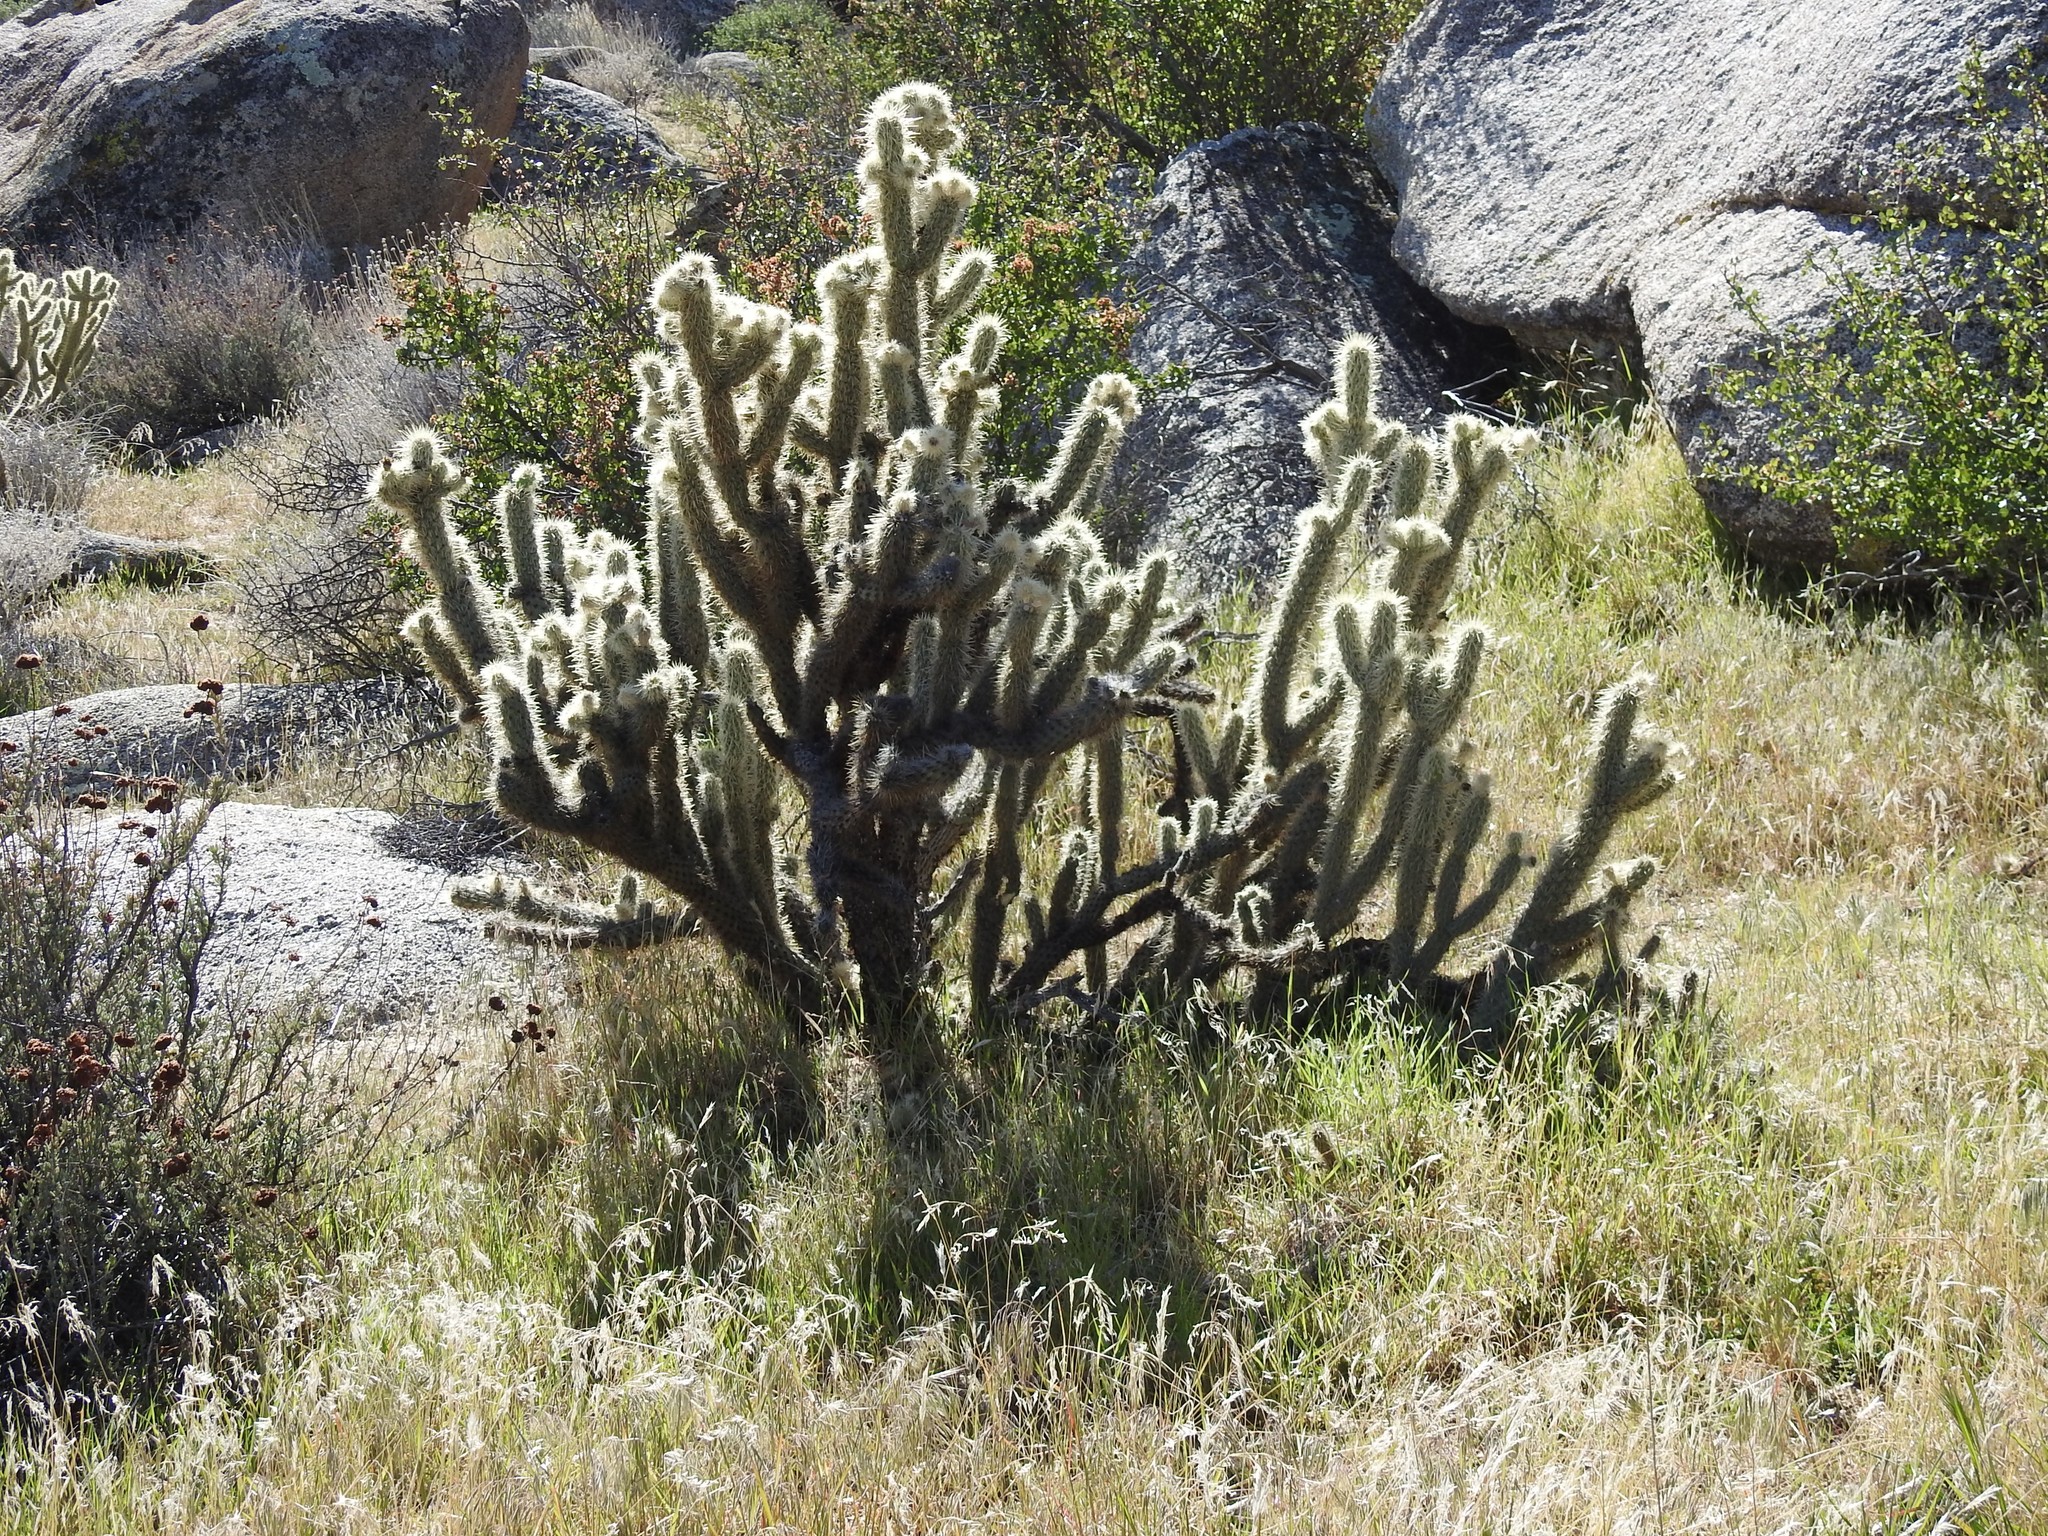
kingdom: Plantae
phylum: Tracheophyta
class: Magnoliopsida
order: Caryophyllales
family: Cactaceae
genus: Cylindropuntia
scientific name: Cylindropuntia ganderi
